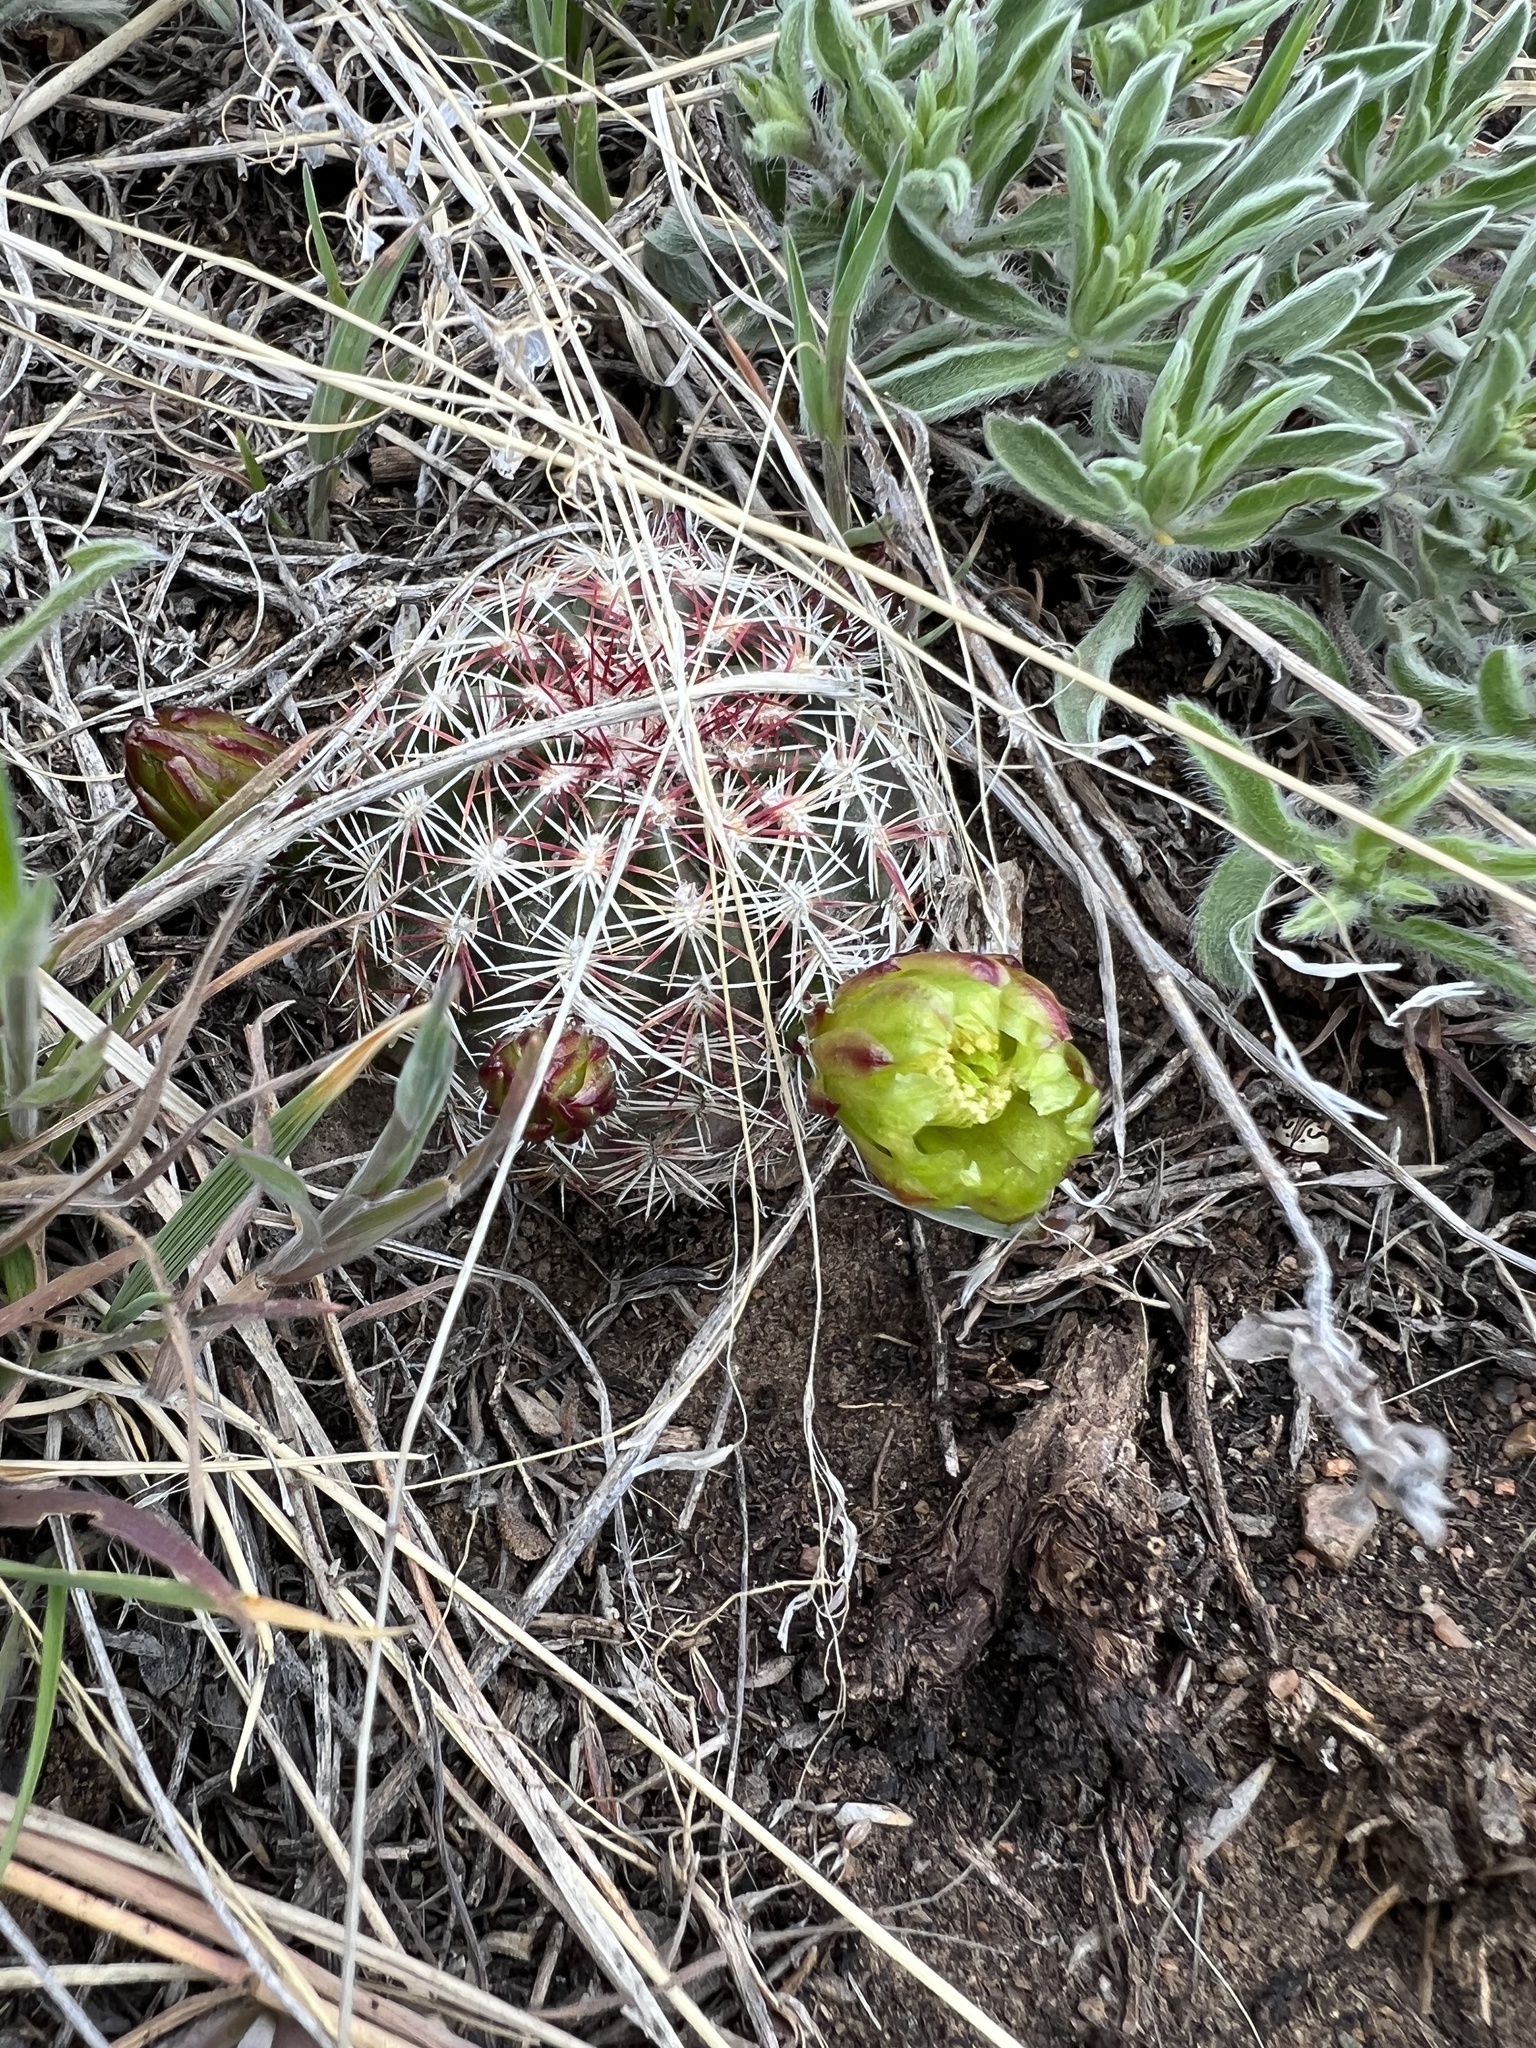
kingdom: Plantae
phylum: Tracheophyta
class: Magnoliopsida
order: Caryophyllales
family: Cactaceae
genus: Echinocereus
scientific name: Echinocereus viridiflorus
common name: Nylon hedgehog cactus
